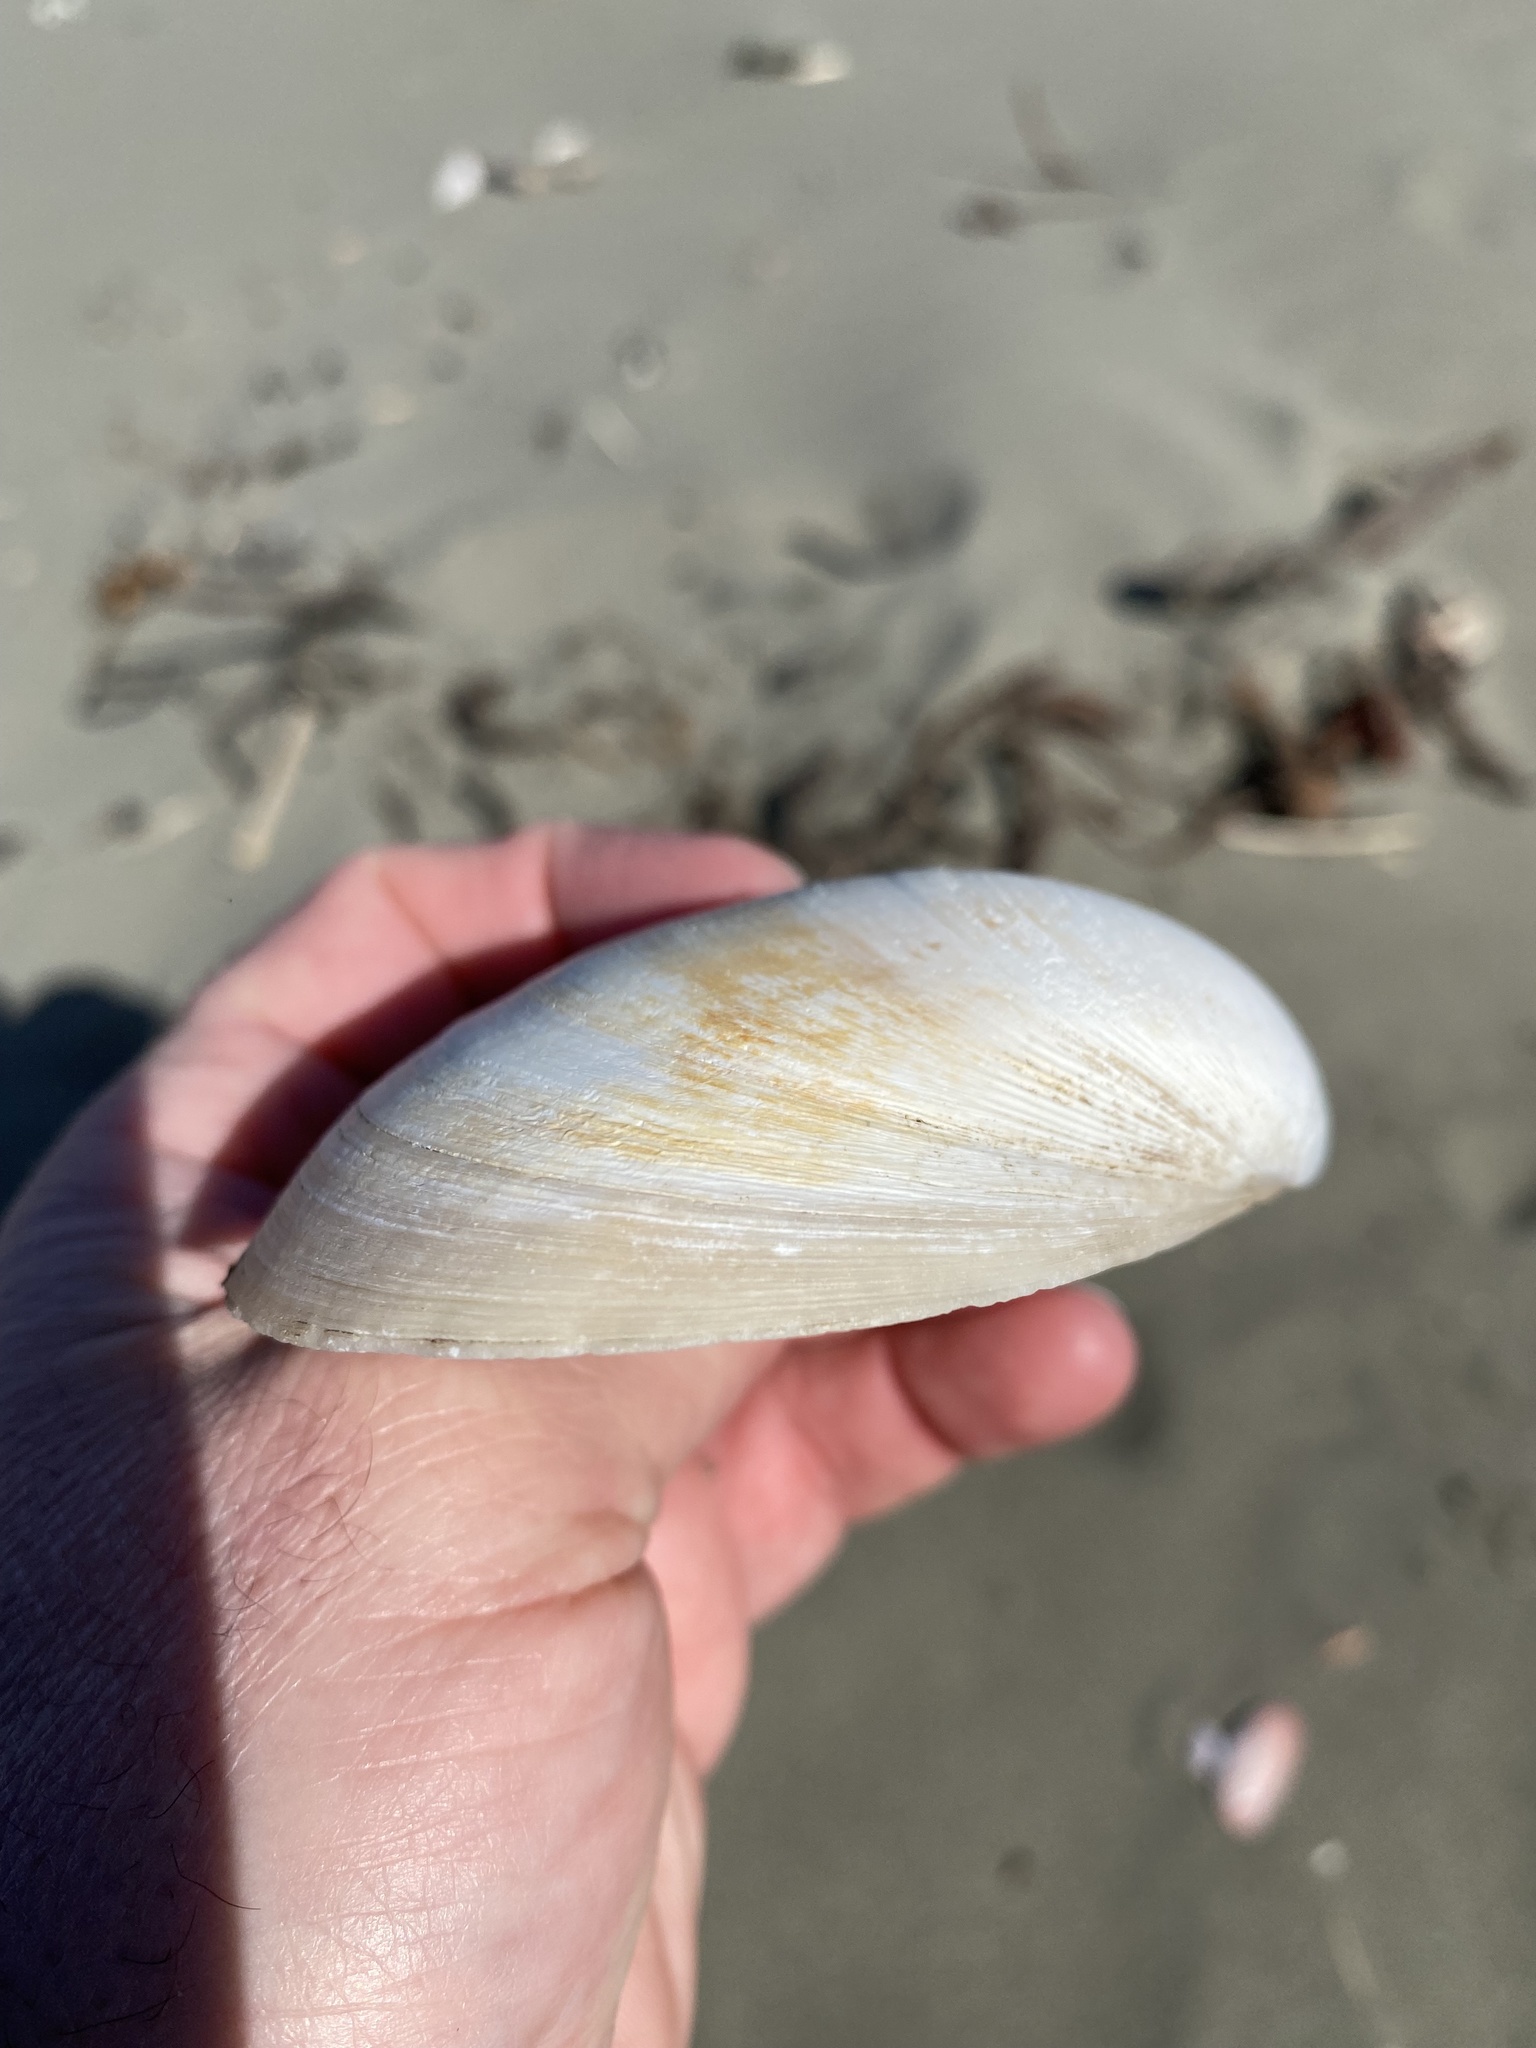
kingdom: Animalia
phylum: Mollusca
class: Bivalvia
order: Venerida
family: Mactridae
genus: Spisula
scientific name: Spisula murchisoni
